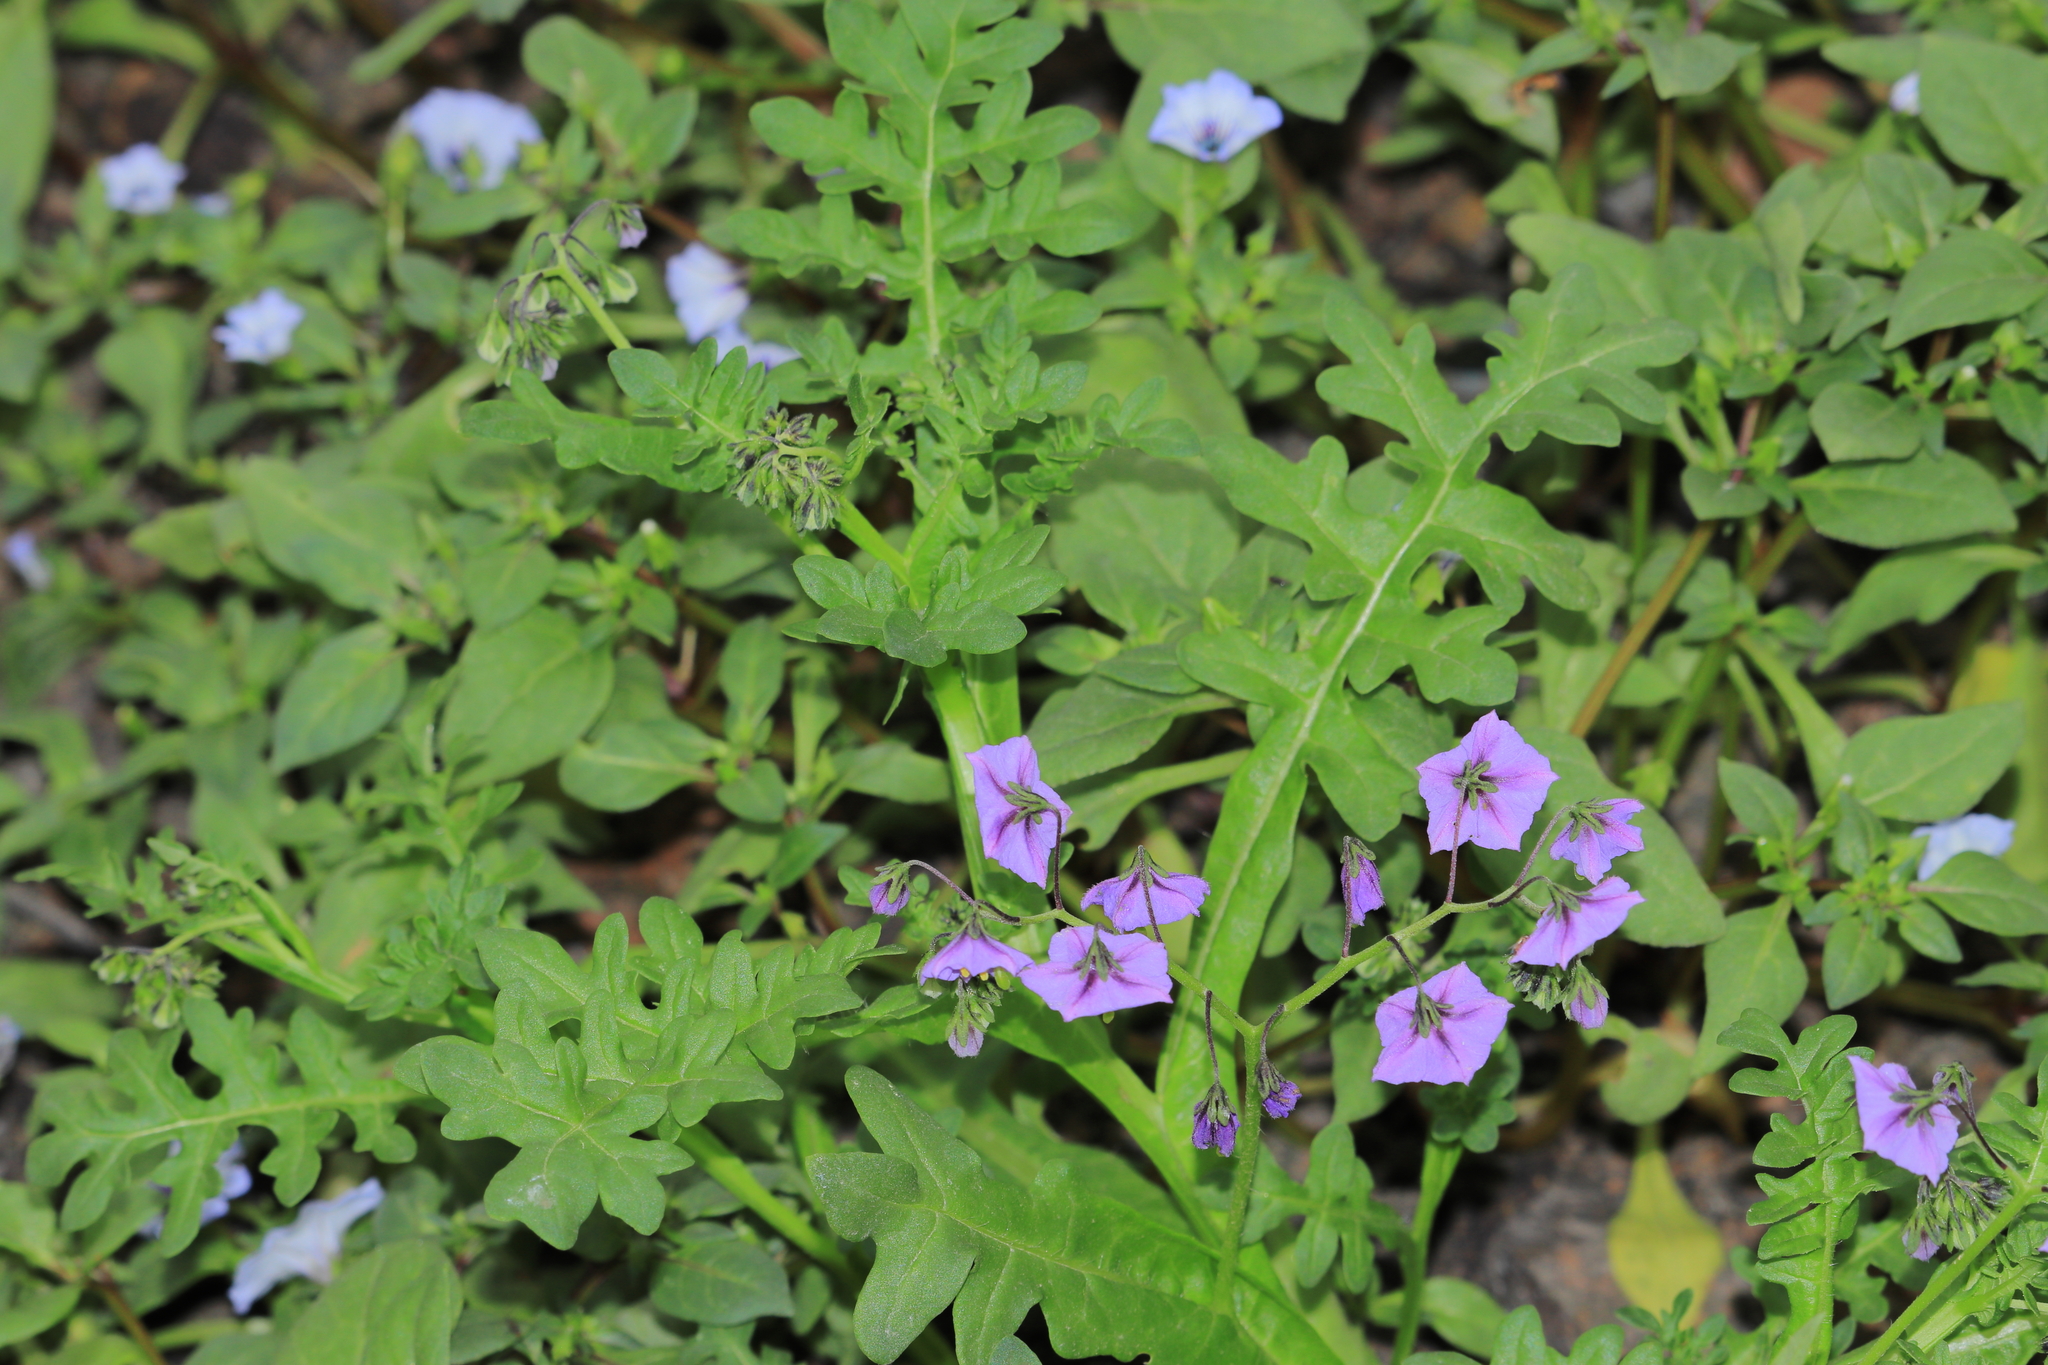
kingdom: Plantae
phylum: Tracheophyta
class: Magnoliopsida
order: Solanales
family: Solanaceae
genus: Solanum
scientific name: Solanum multifidum
